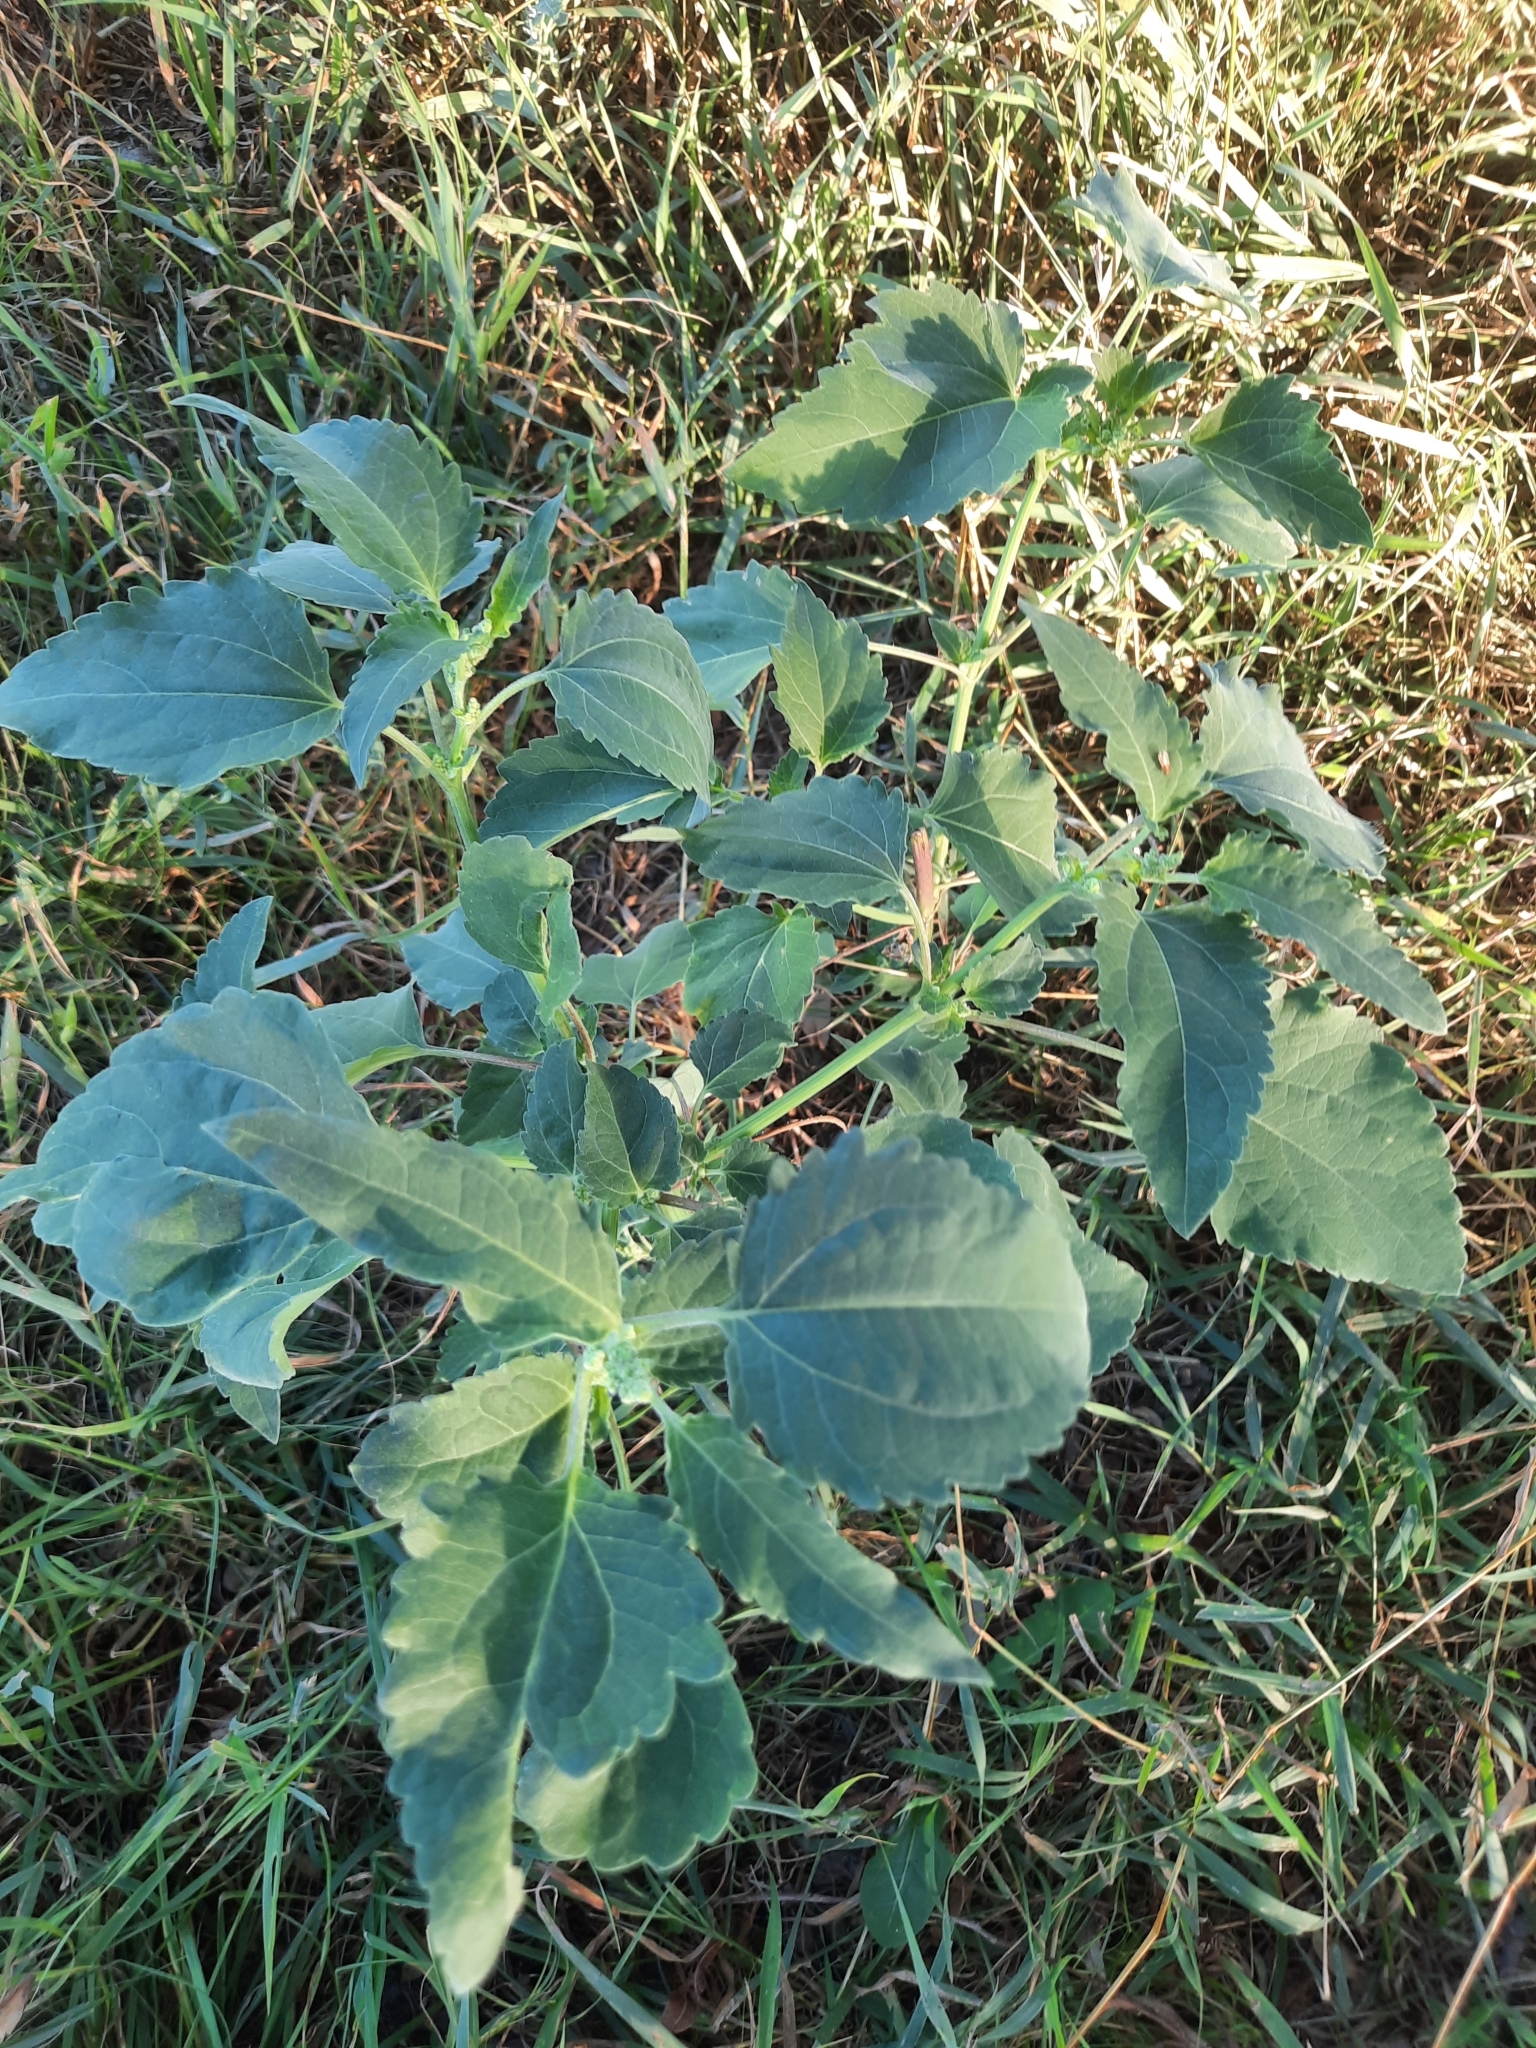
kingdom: Plantae
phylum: Tracheophyta
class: Magnoliopsida
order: Asterales
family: Asteraceae
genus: Cyclachaena
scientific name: Cyclachaena xanthiifolia
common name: Giant sumpweed
